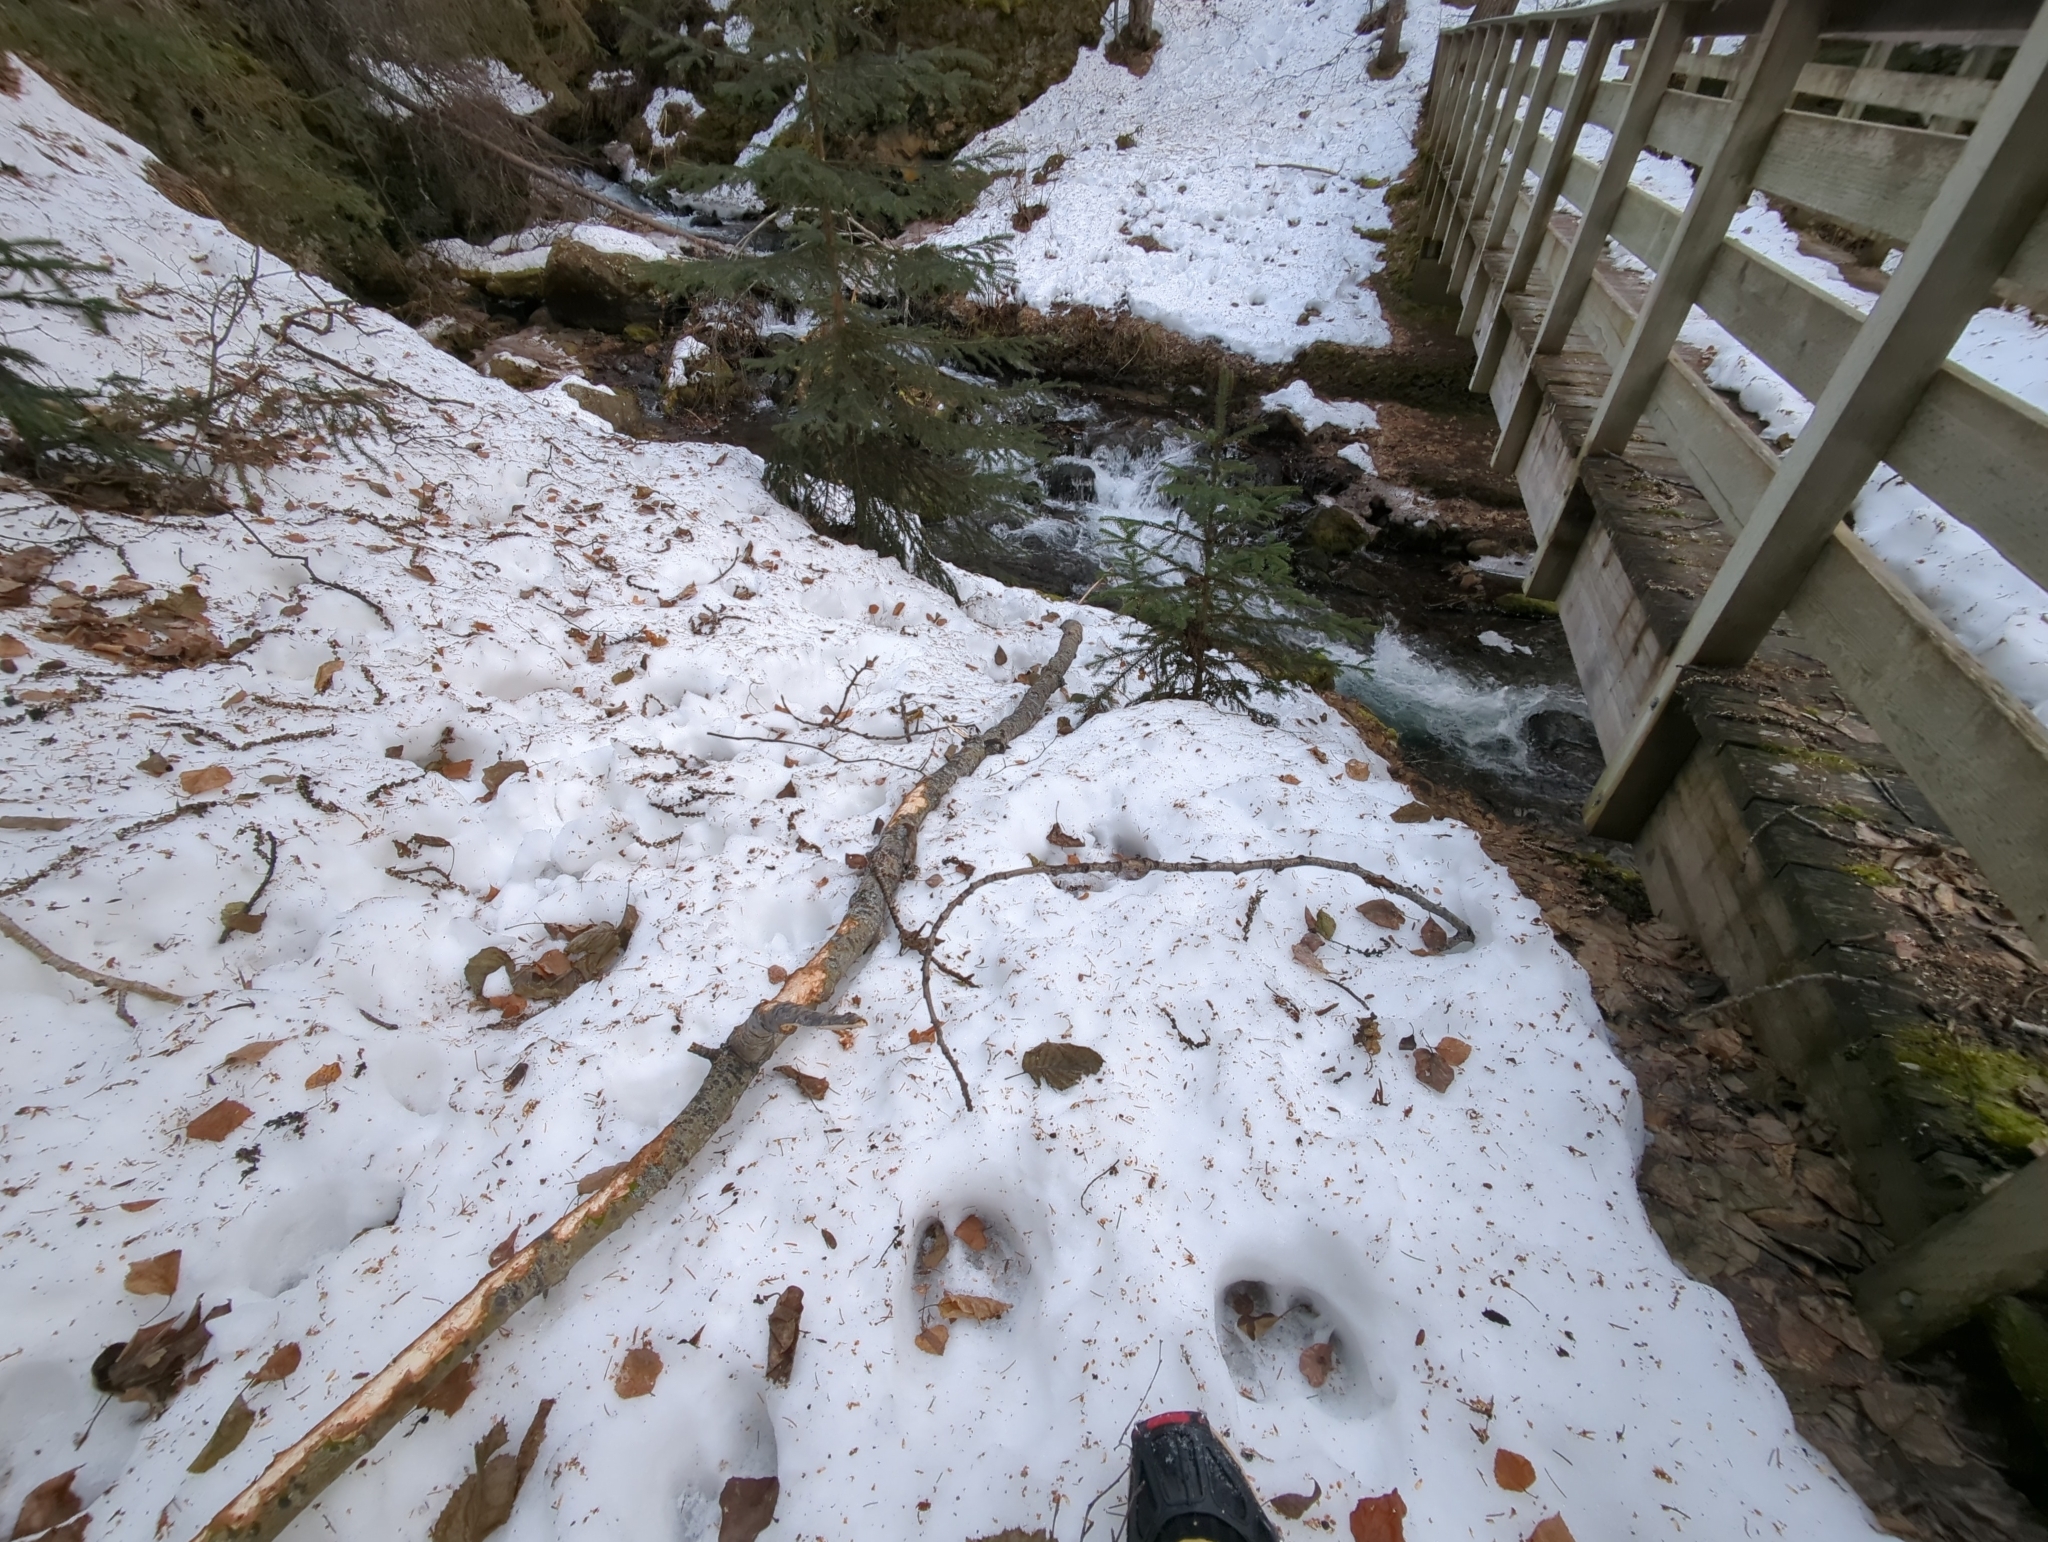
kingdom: Animalia
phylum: Chordata
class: Mammalia
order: Artiodactyla
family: Cervidae
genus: Alces
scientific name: Alces alces
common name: Moose
